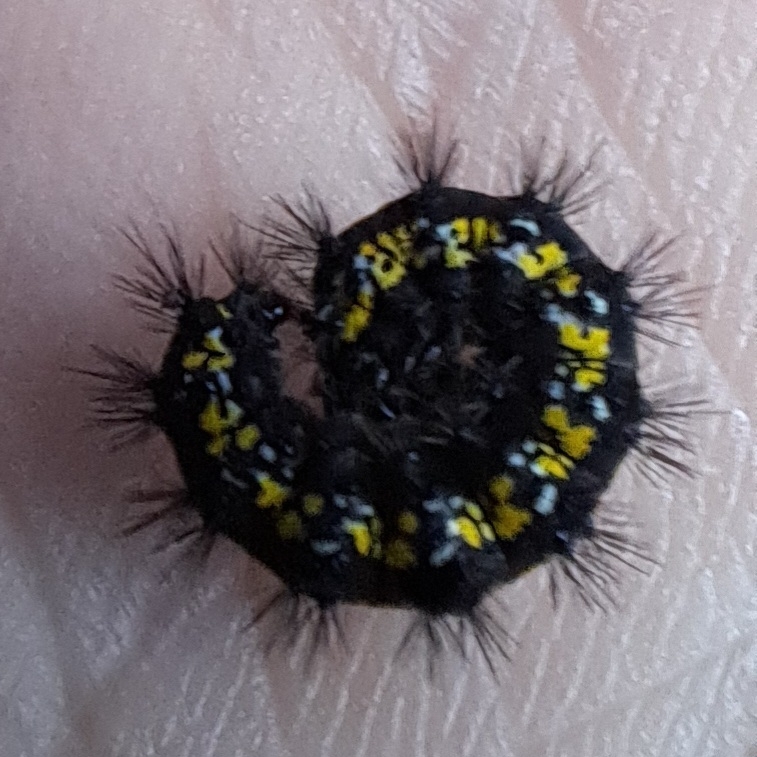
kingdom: Animalia
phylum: Arthropoda
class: Insecta
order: Lepidoptera
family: Erebidae
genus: Callimorpha
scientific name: Callimorpha dominula
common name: Scarlet tiger
